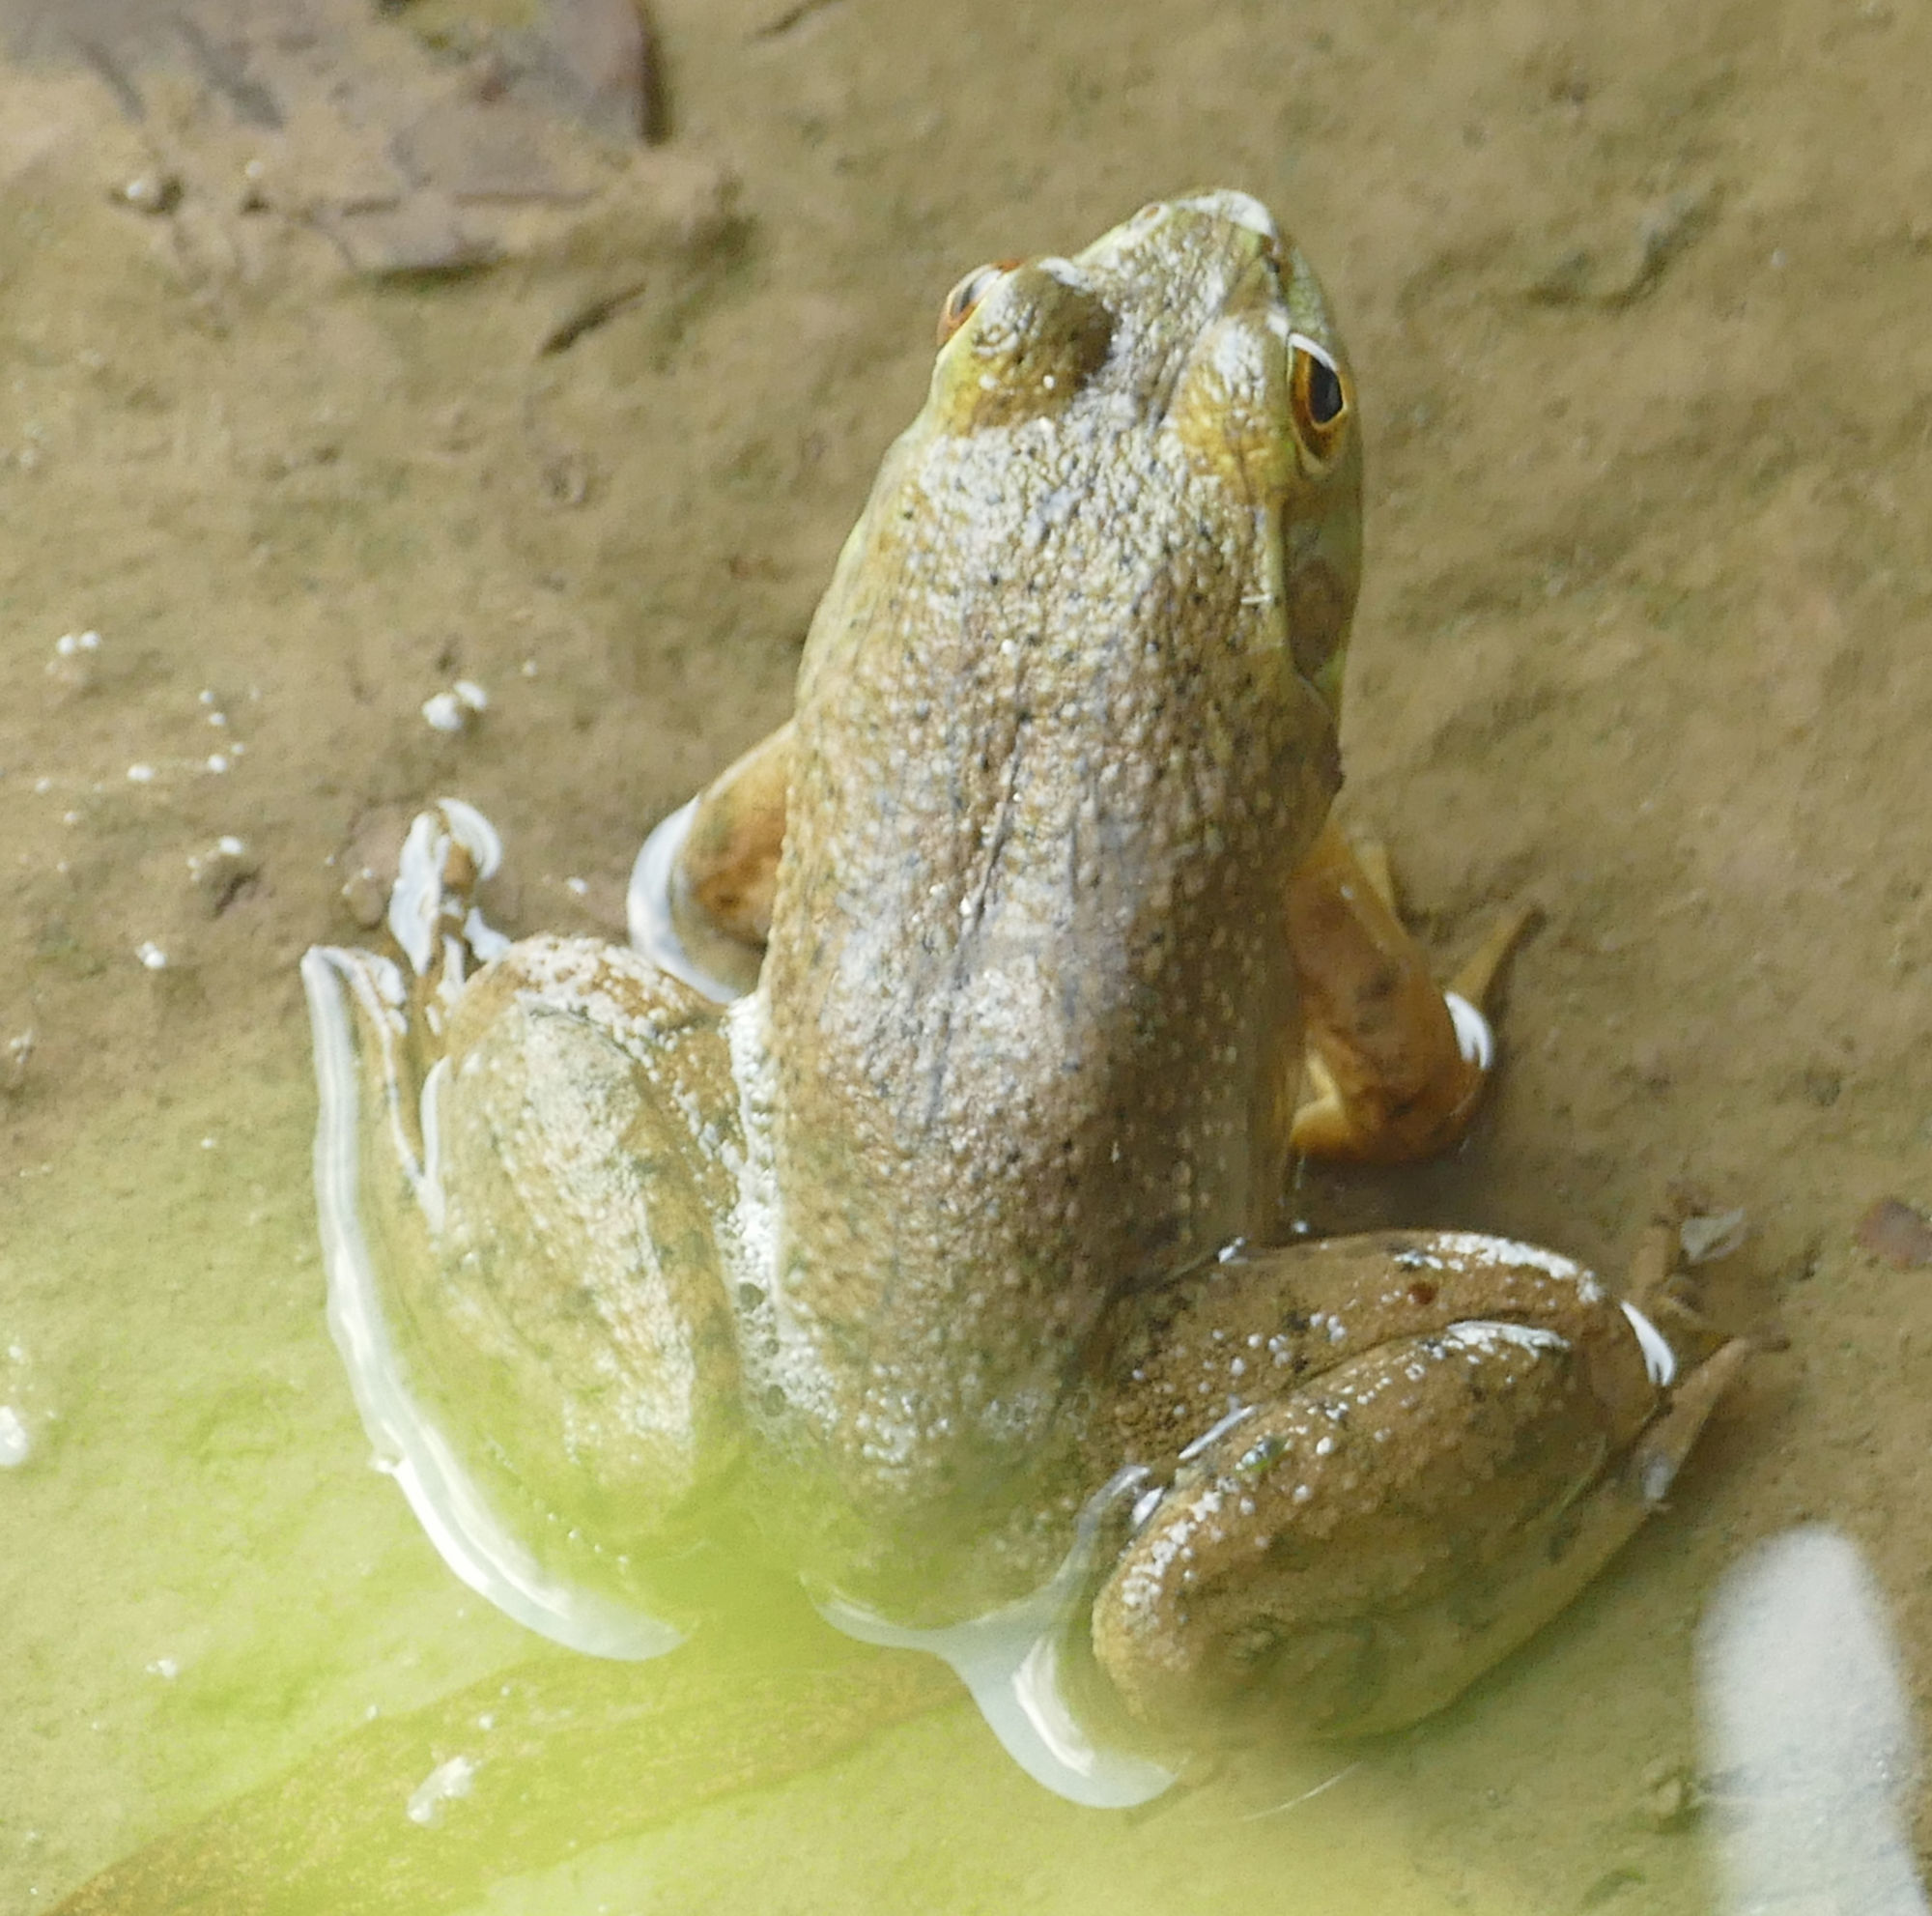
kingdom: Animalia
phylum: Chordata
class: Amphibia
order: Anura
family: Ranidae
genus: Lithobates
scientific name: Lithobates catesbeianus
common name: American bullfrog
